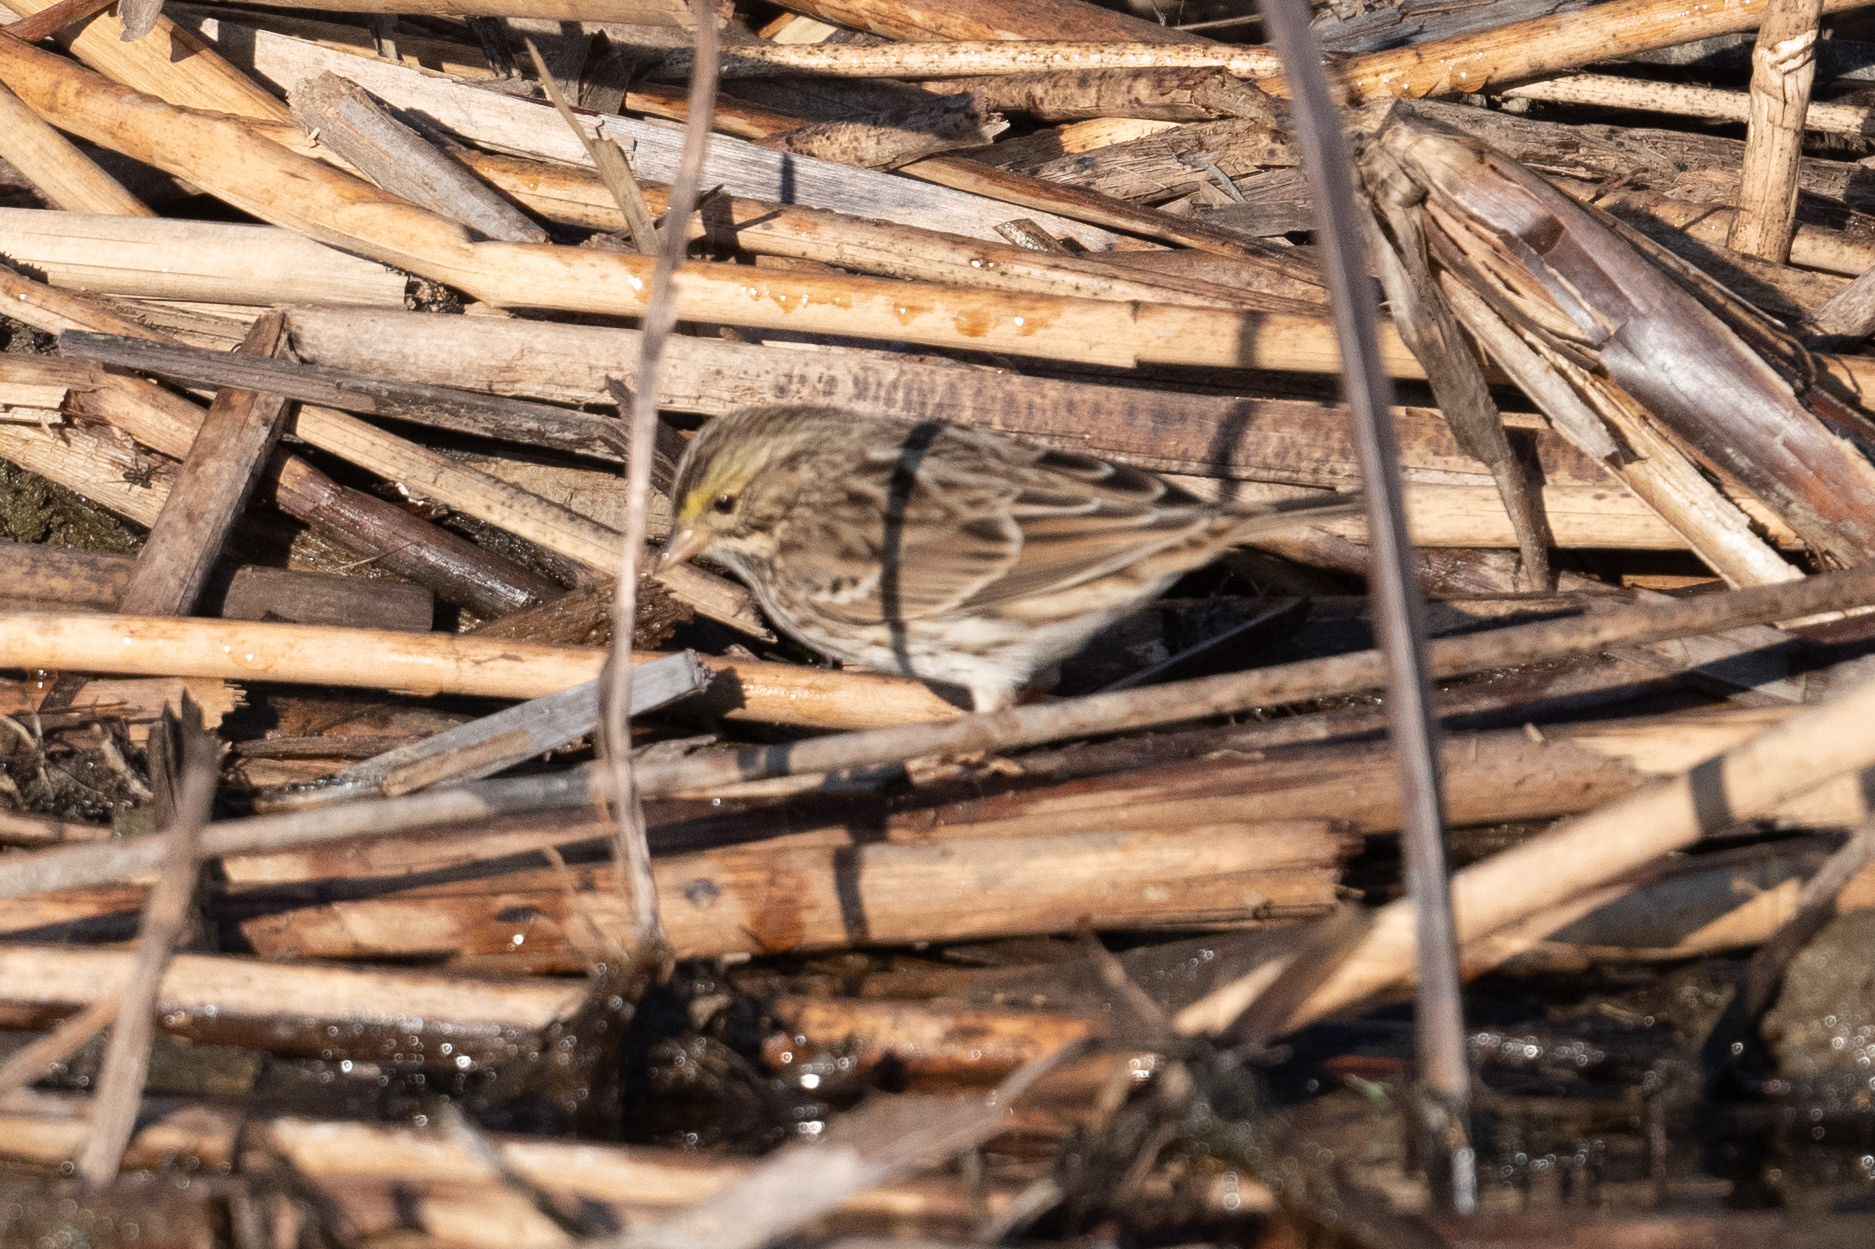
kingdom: Animalia
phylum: Chordata
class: Aves
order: Passeriformes
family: Passerellidae
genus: Passerculus
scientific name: Passerculus sandwichensis
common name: Savannah sparrow
